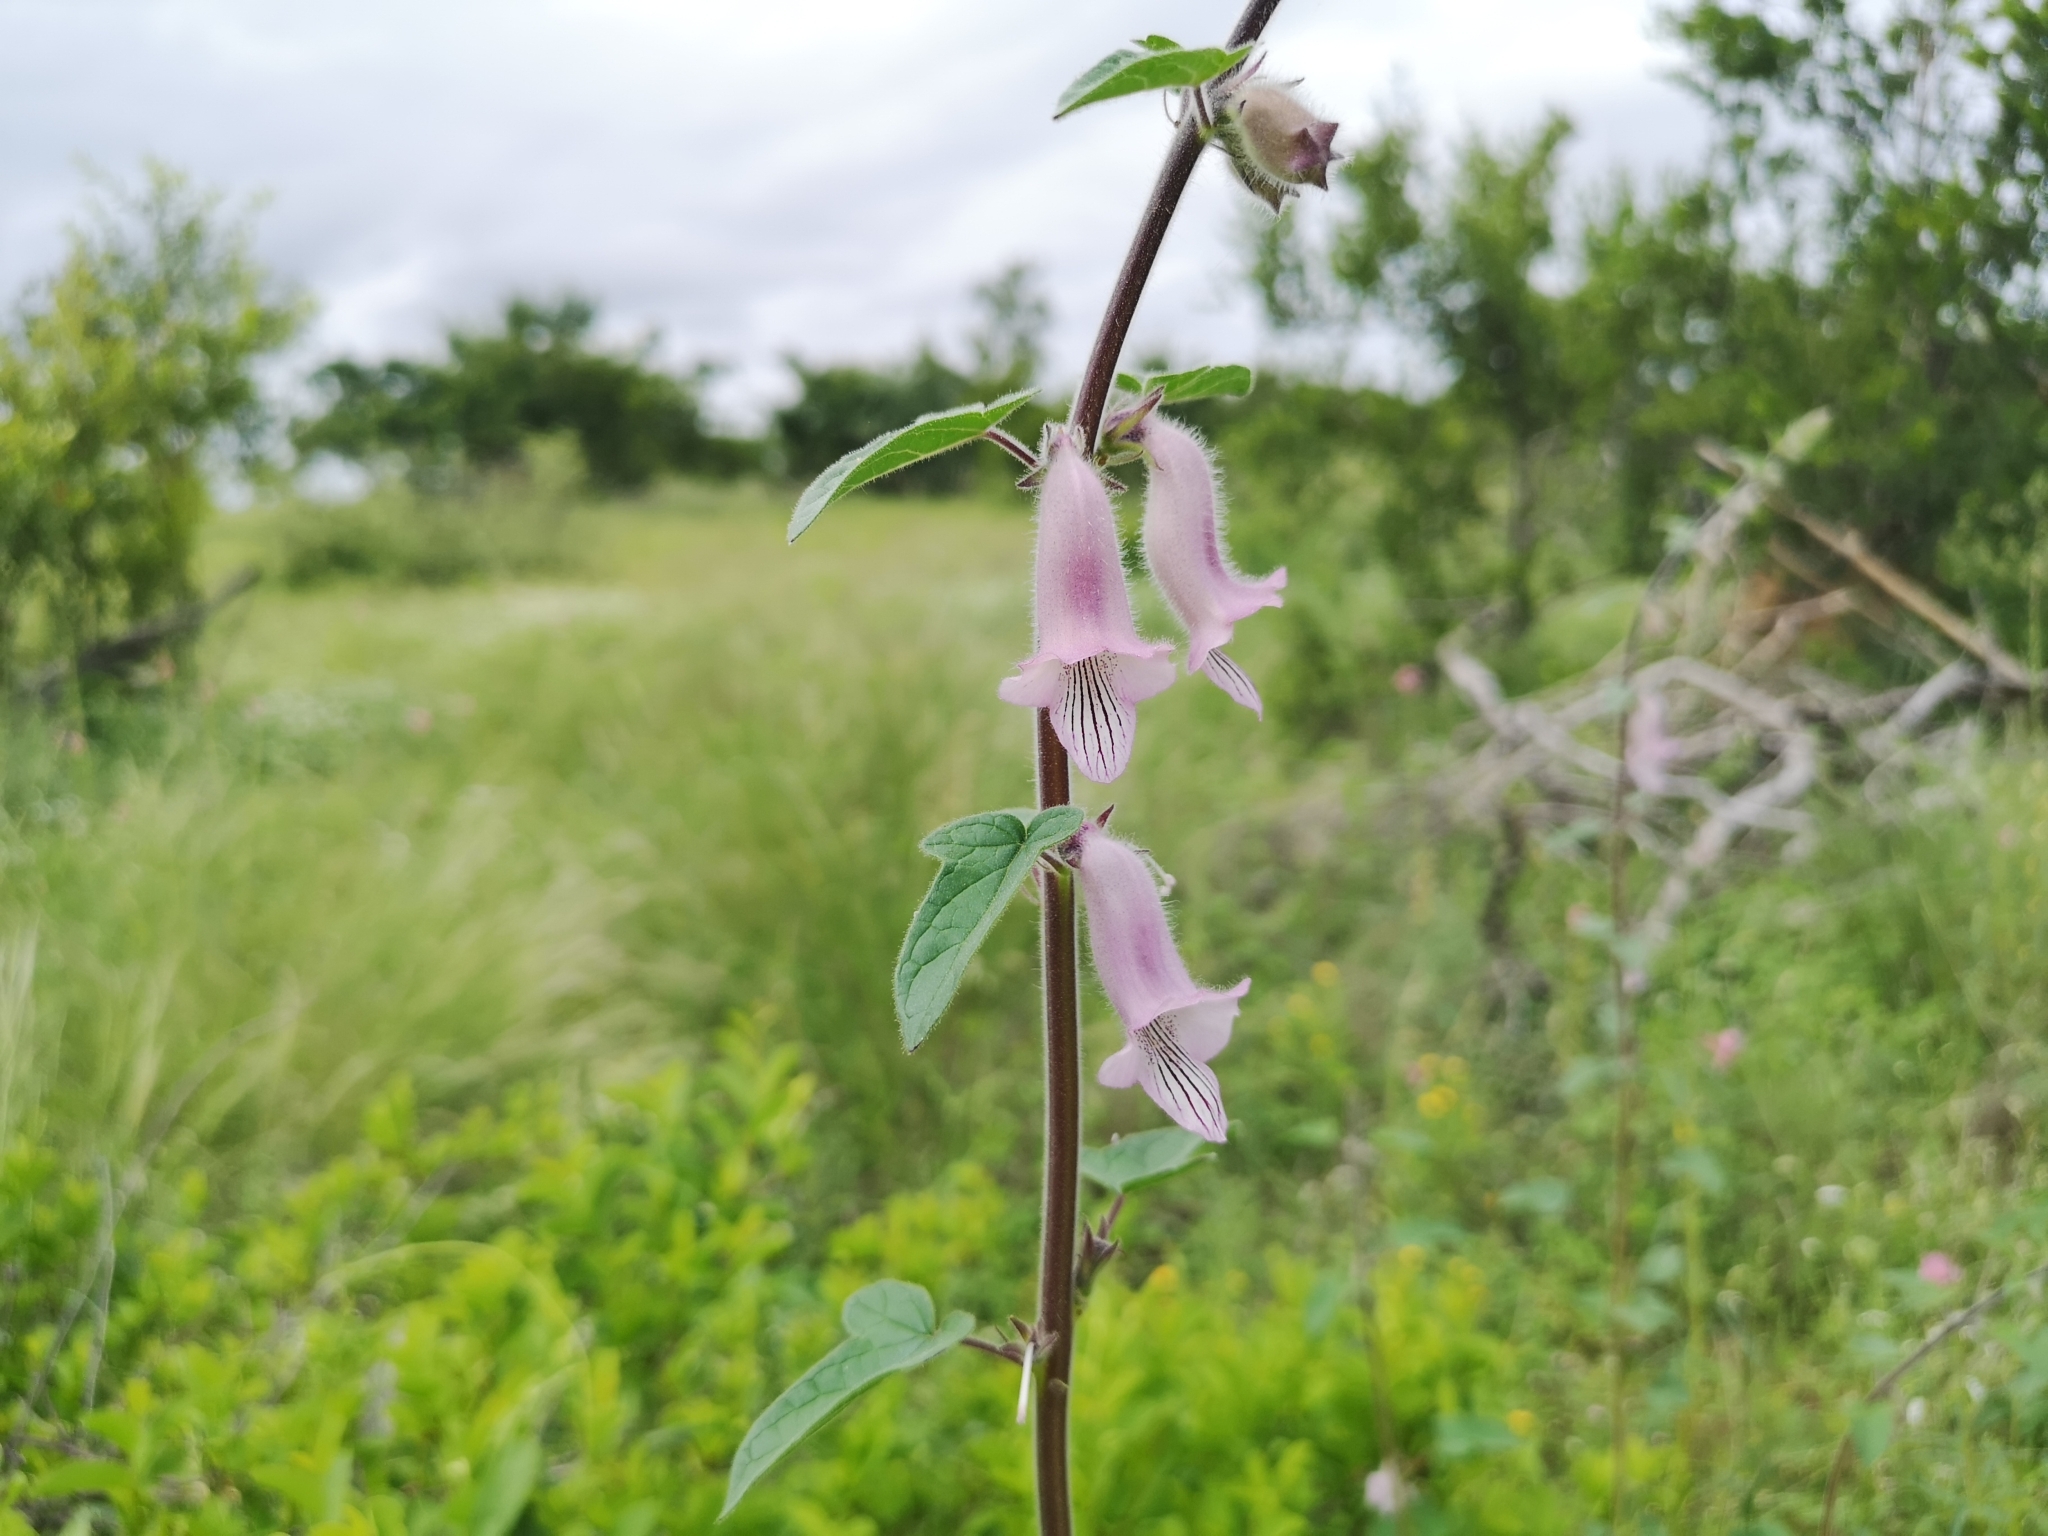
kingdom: Plantae
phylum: Tracheophyta
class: Magnoliopsida
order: Lamiales
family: Pedaliaceae
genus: Sesamum
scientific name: Sesamum trilobum
